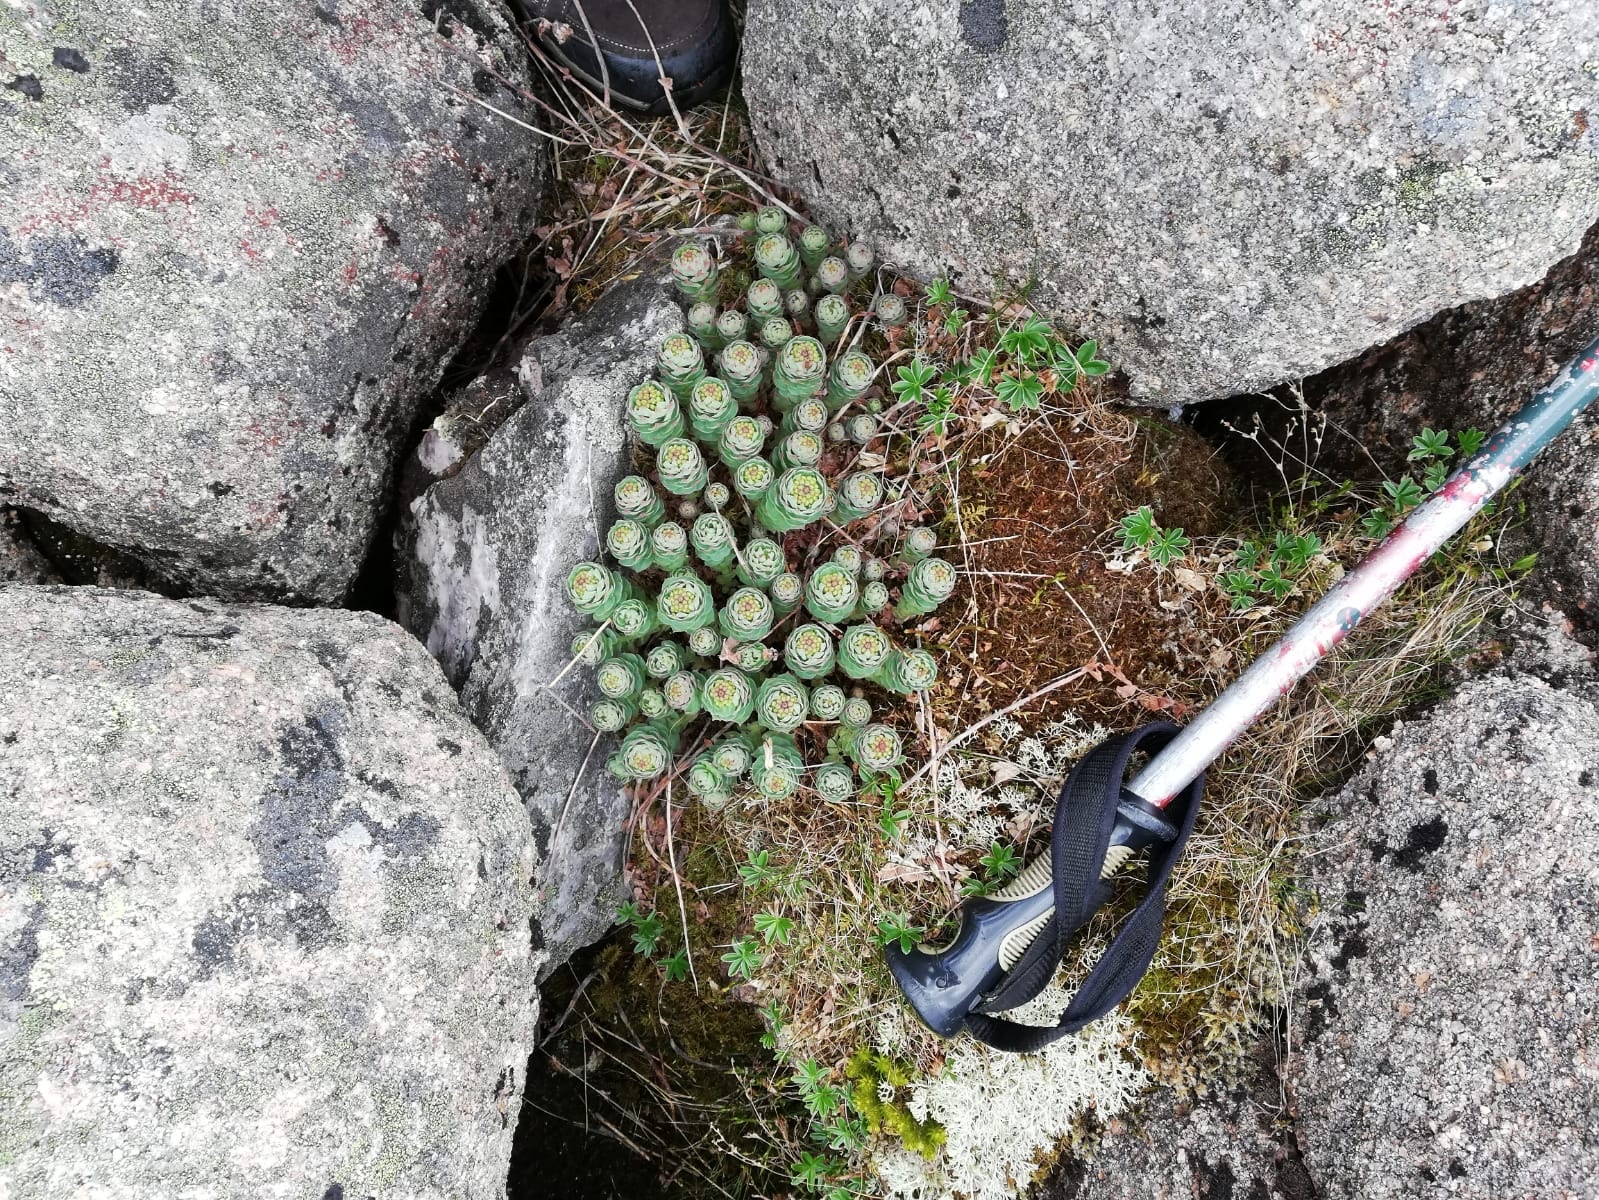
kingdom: Plantae
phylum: Tracheophyta
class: Magnoliopsida
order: Saxifragales
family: Crassulaceae
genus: Rhodiola
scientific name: Rhodiola rosea
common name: Roseroot
